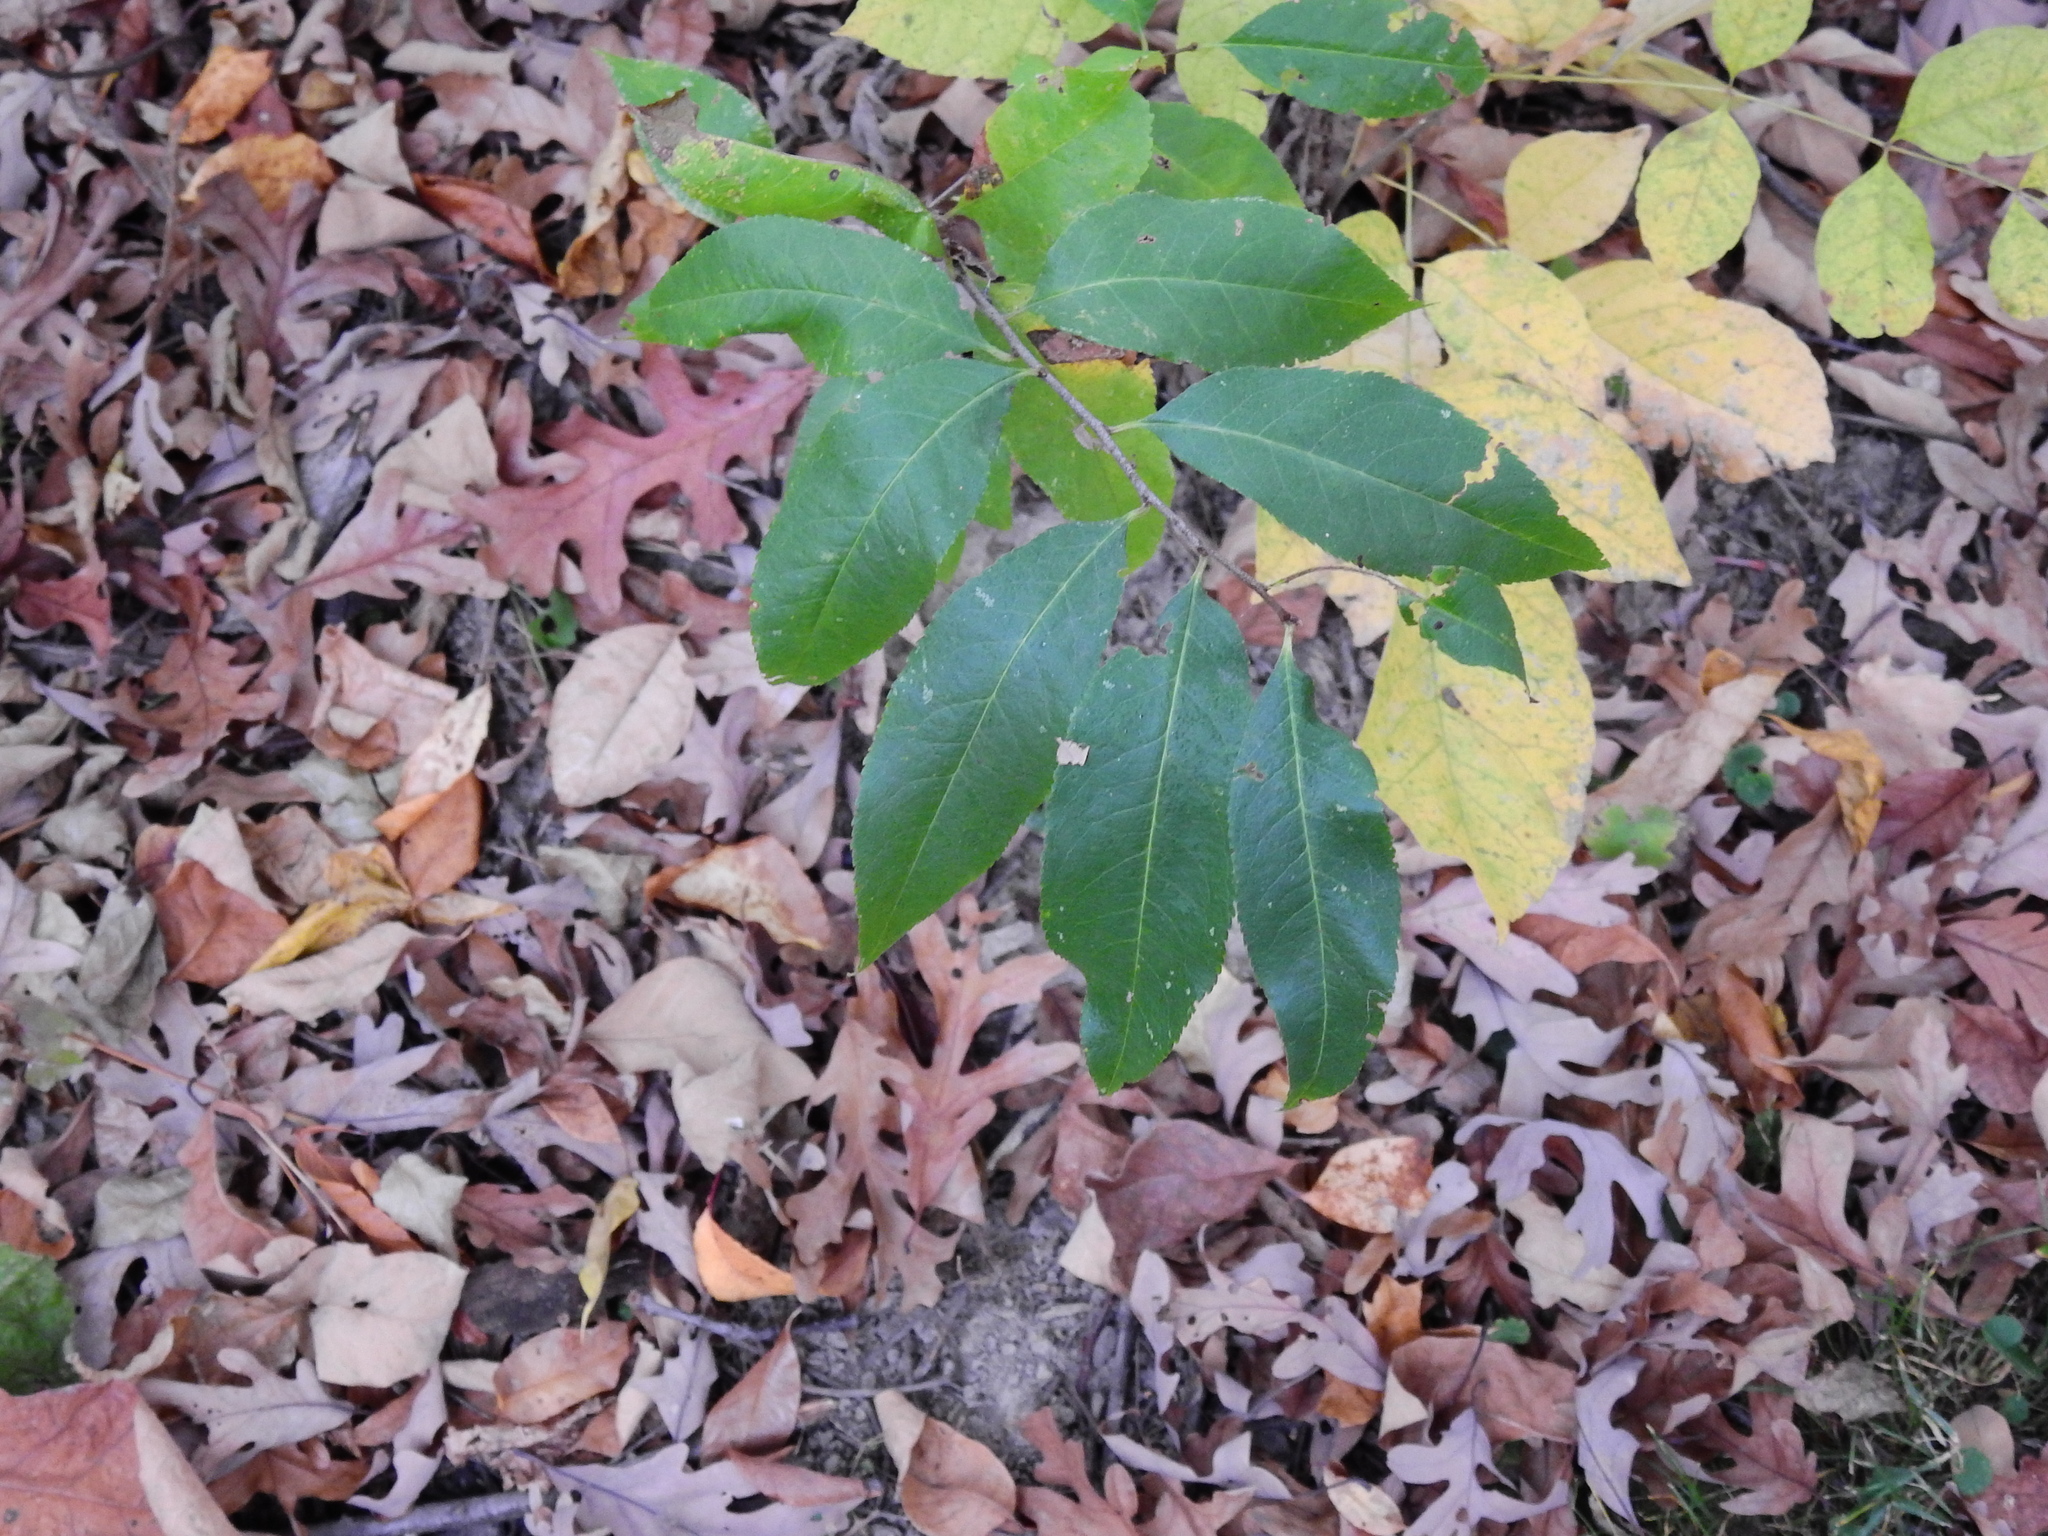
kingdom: Plantae
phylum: Tracheophyta
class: Magnoliopsida
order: Rosales
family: Rosaceae
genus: Prunus
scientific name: Prunus serotina
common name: Black cherry
